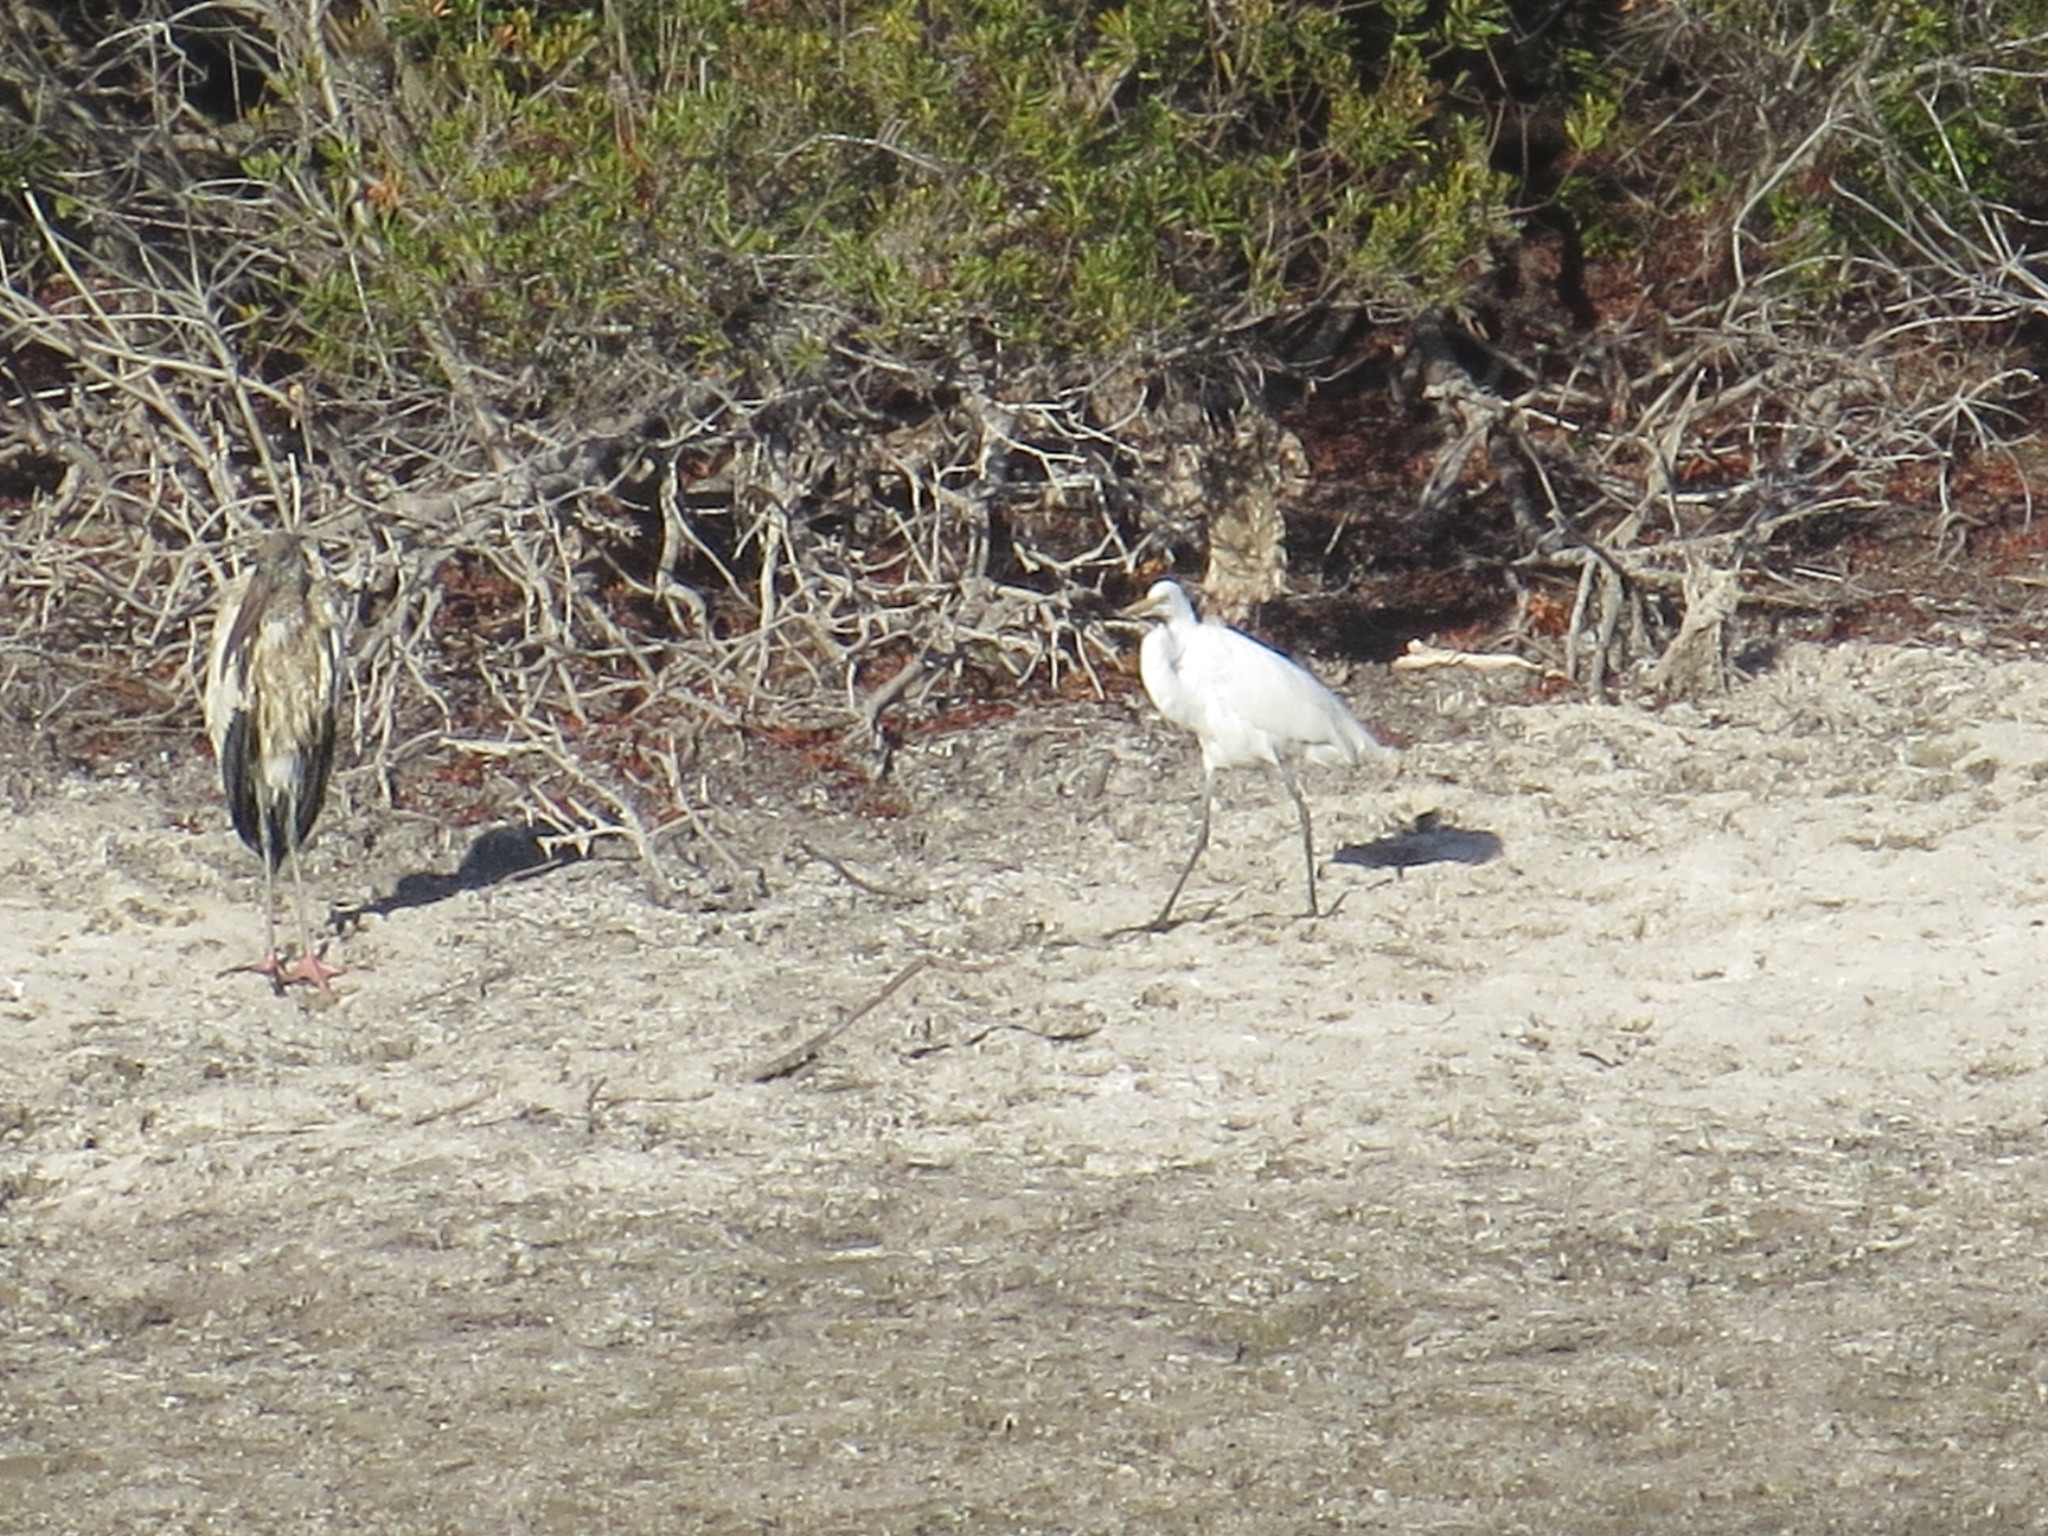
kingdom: Animalia
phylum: Chordata
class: Aves
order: Pelecaniformes
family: Ardeidae
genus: Ardea
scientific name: Ardea alba
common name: Great egret
